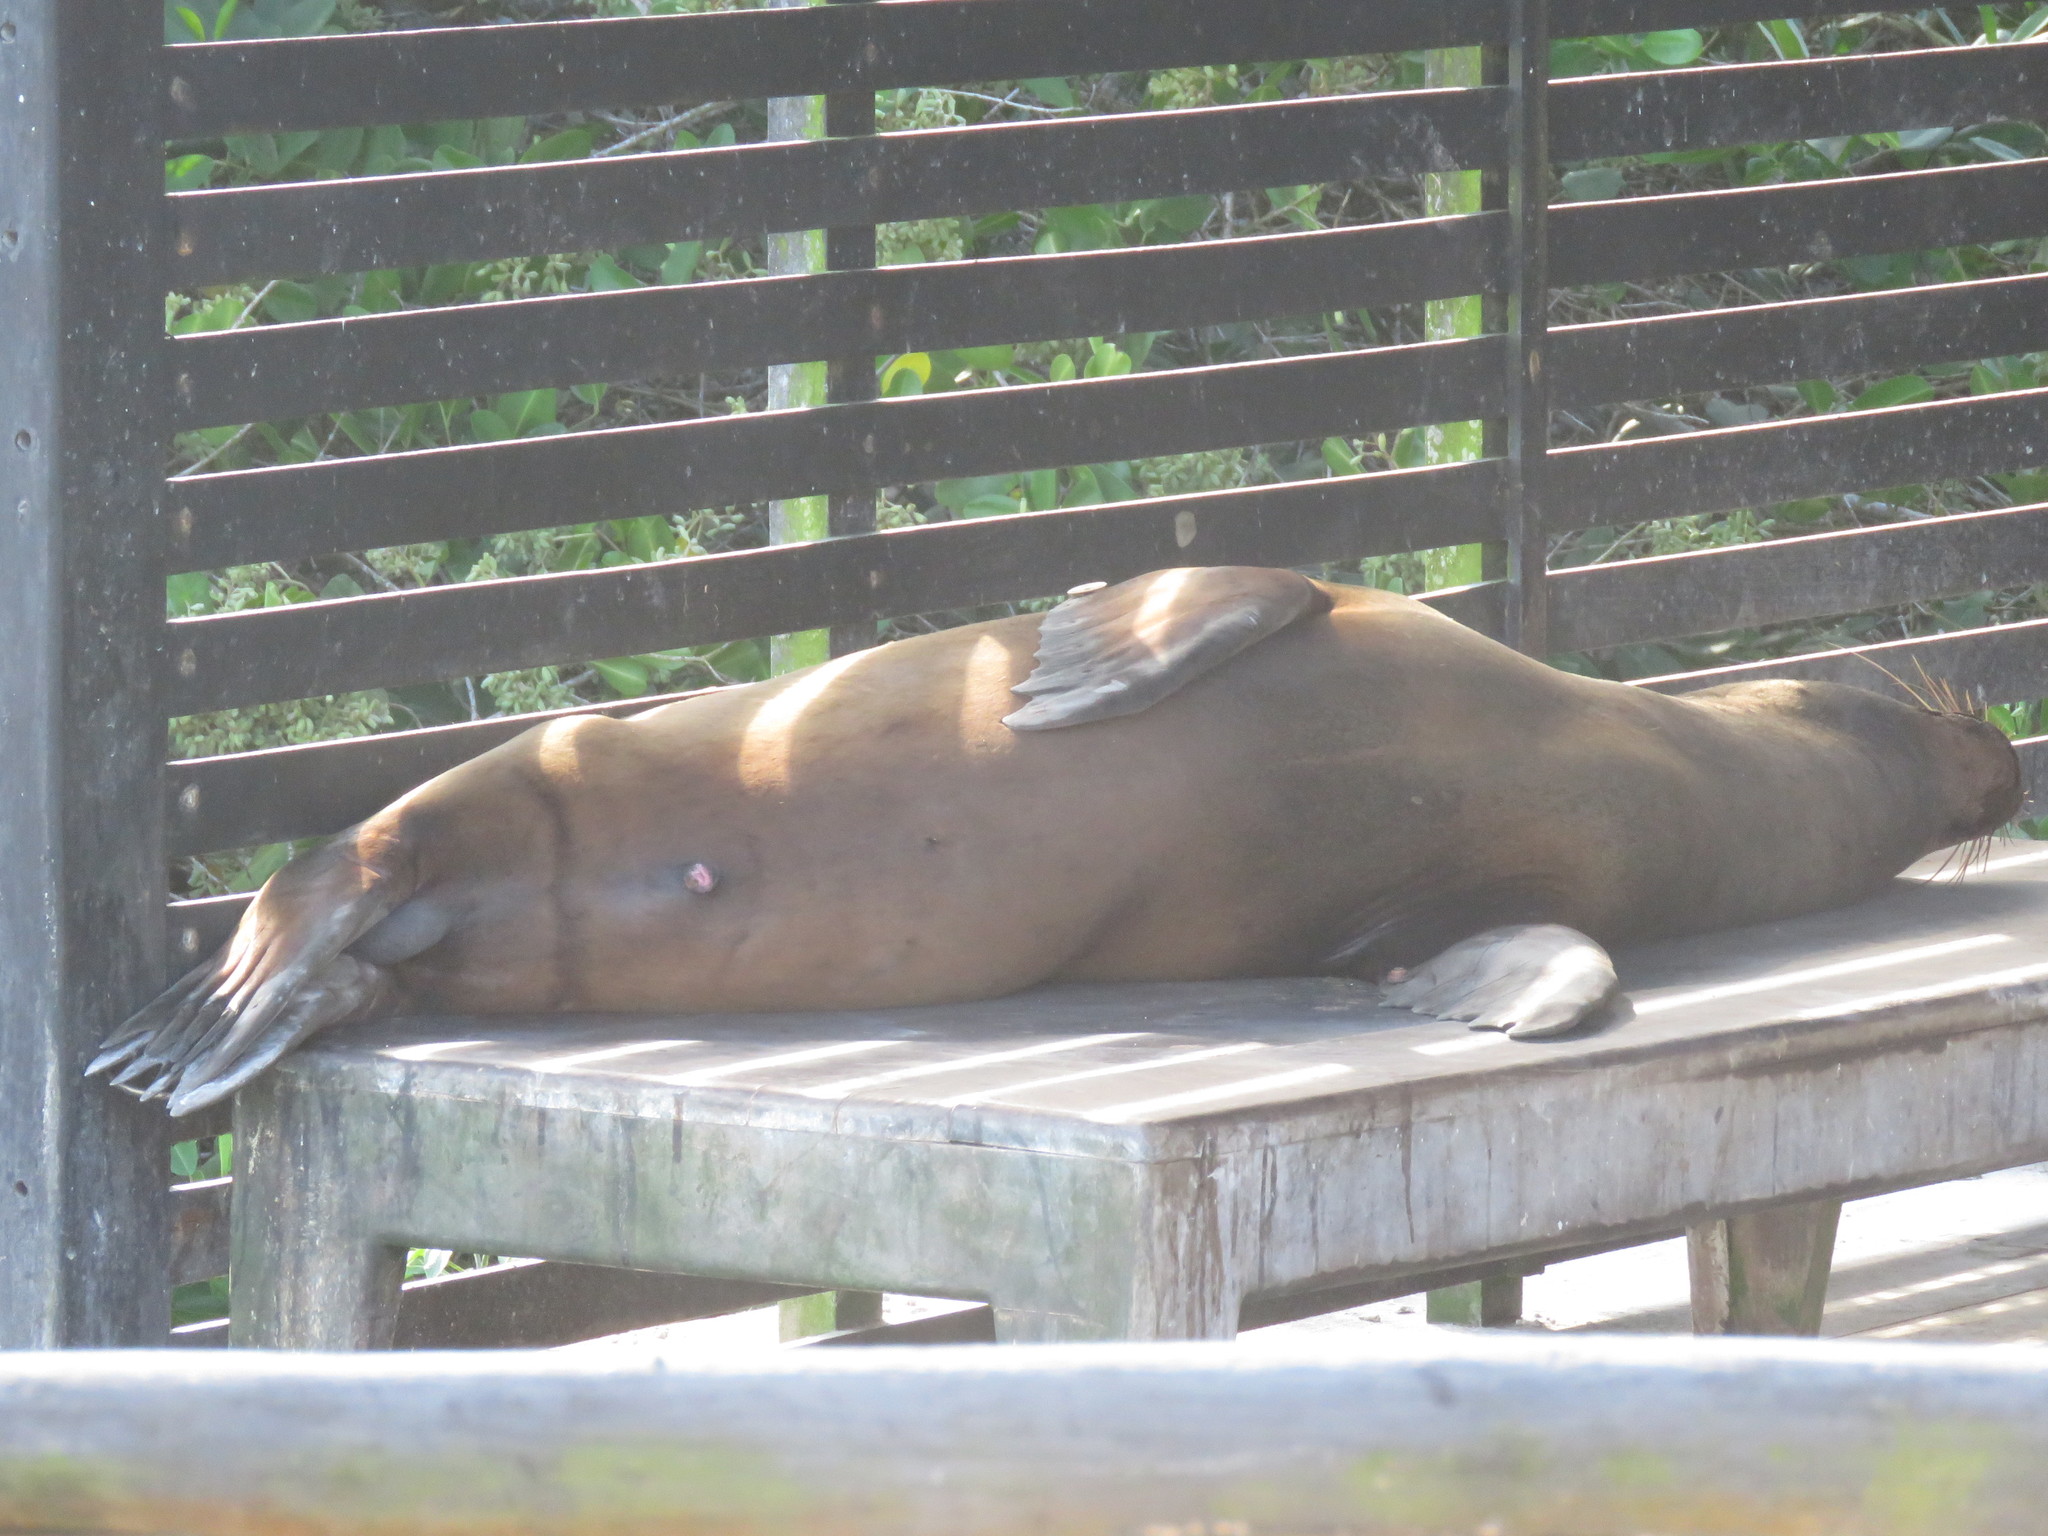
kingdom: Animalia
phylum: Chordata
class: Mammalia
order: Carnivora
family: Otariidae
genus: Zalophus
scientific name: Zalophus wollebaeki
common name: Galapagos sea lion
